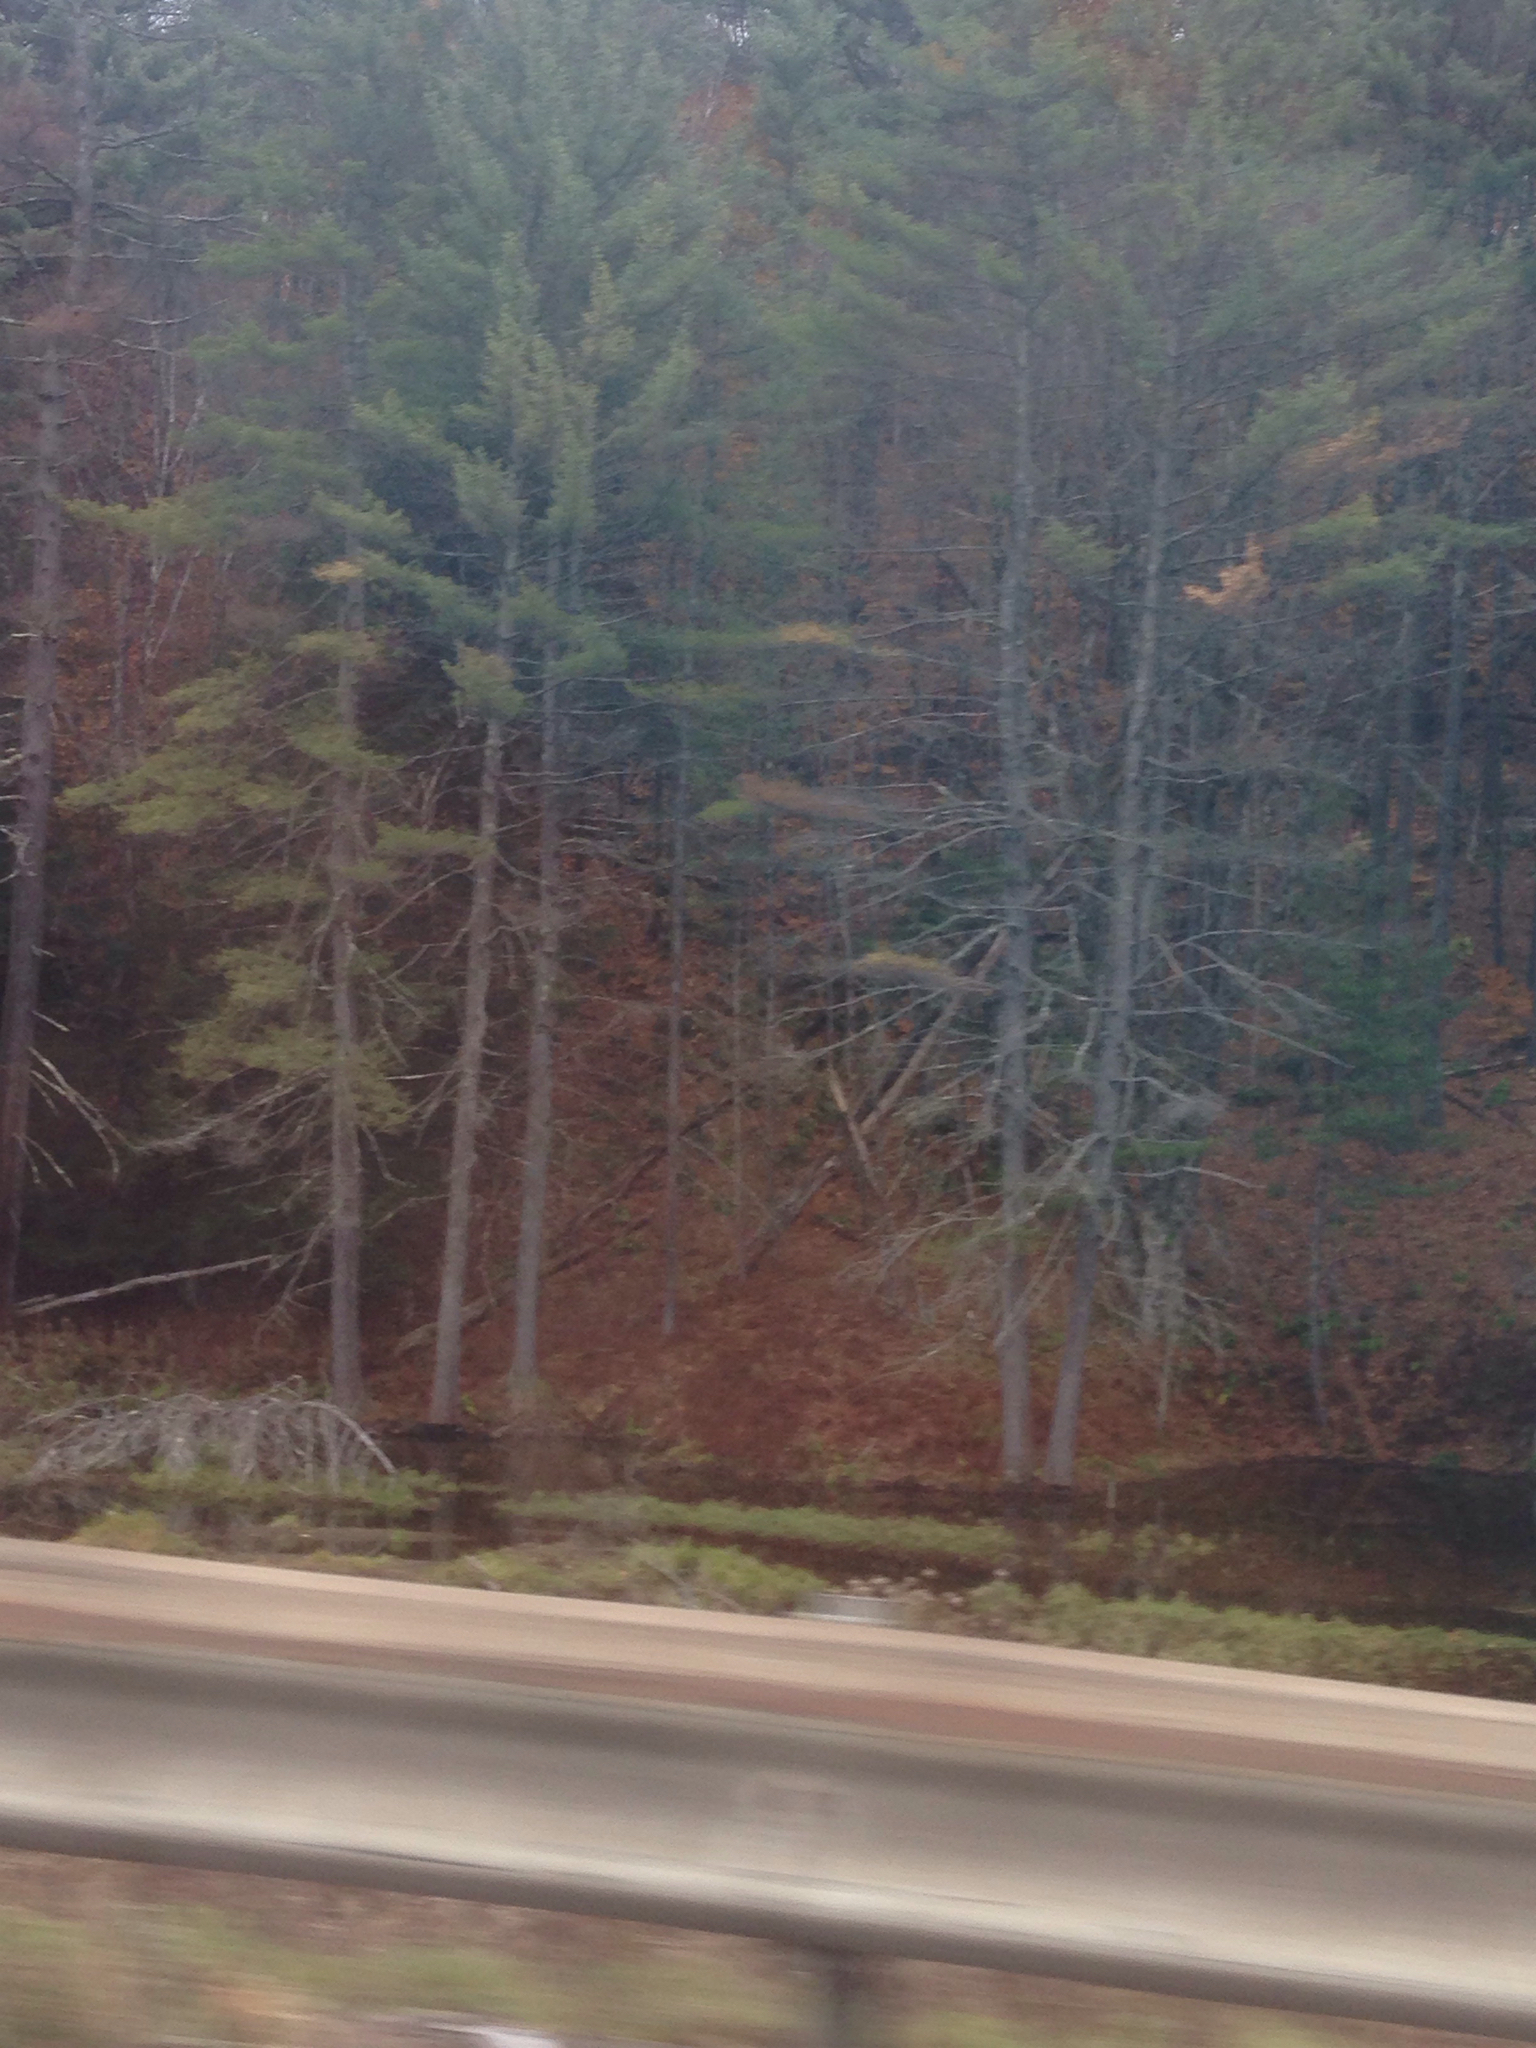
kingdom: Plantae
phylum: Tracheophyta
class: Pinopsida
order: Pinales
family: Pinaceae
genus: Pinus
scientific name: Pinus strobus
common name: Weymouth pine
